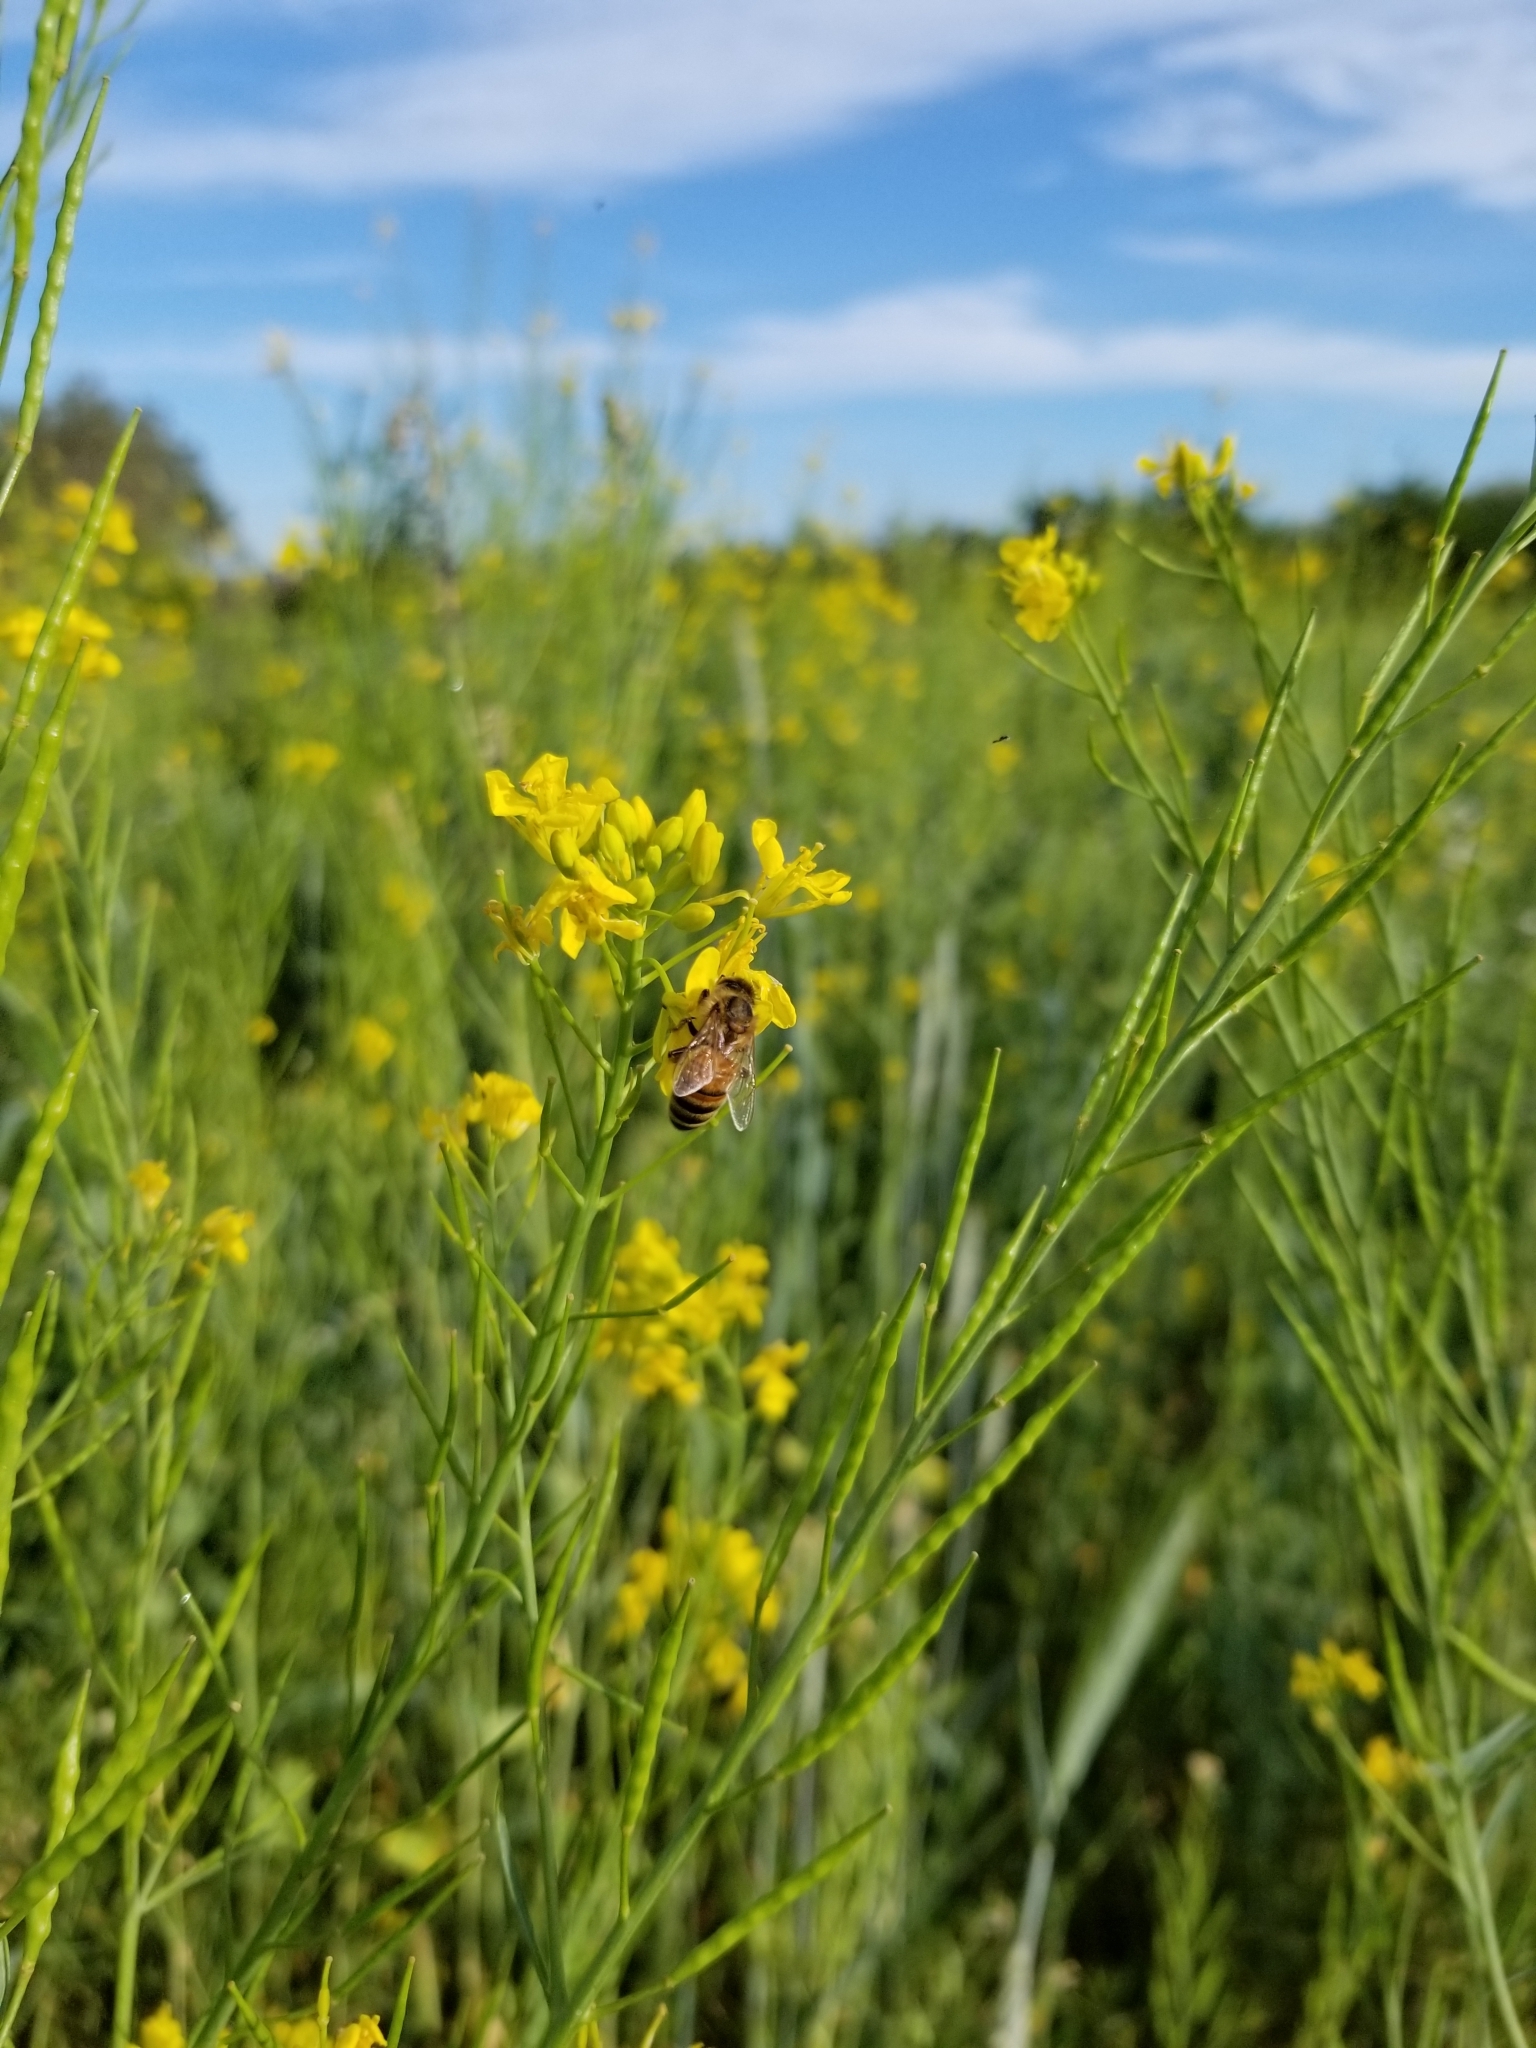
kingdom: Animalia
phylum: Arthropoda
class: Insecta
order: Hymenoptera
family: Apidae
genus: Apis
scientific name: Apis mellifera
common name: Honey bee
